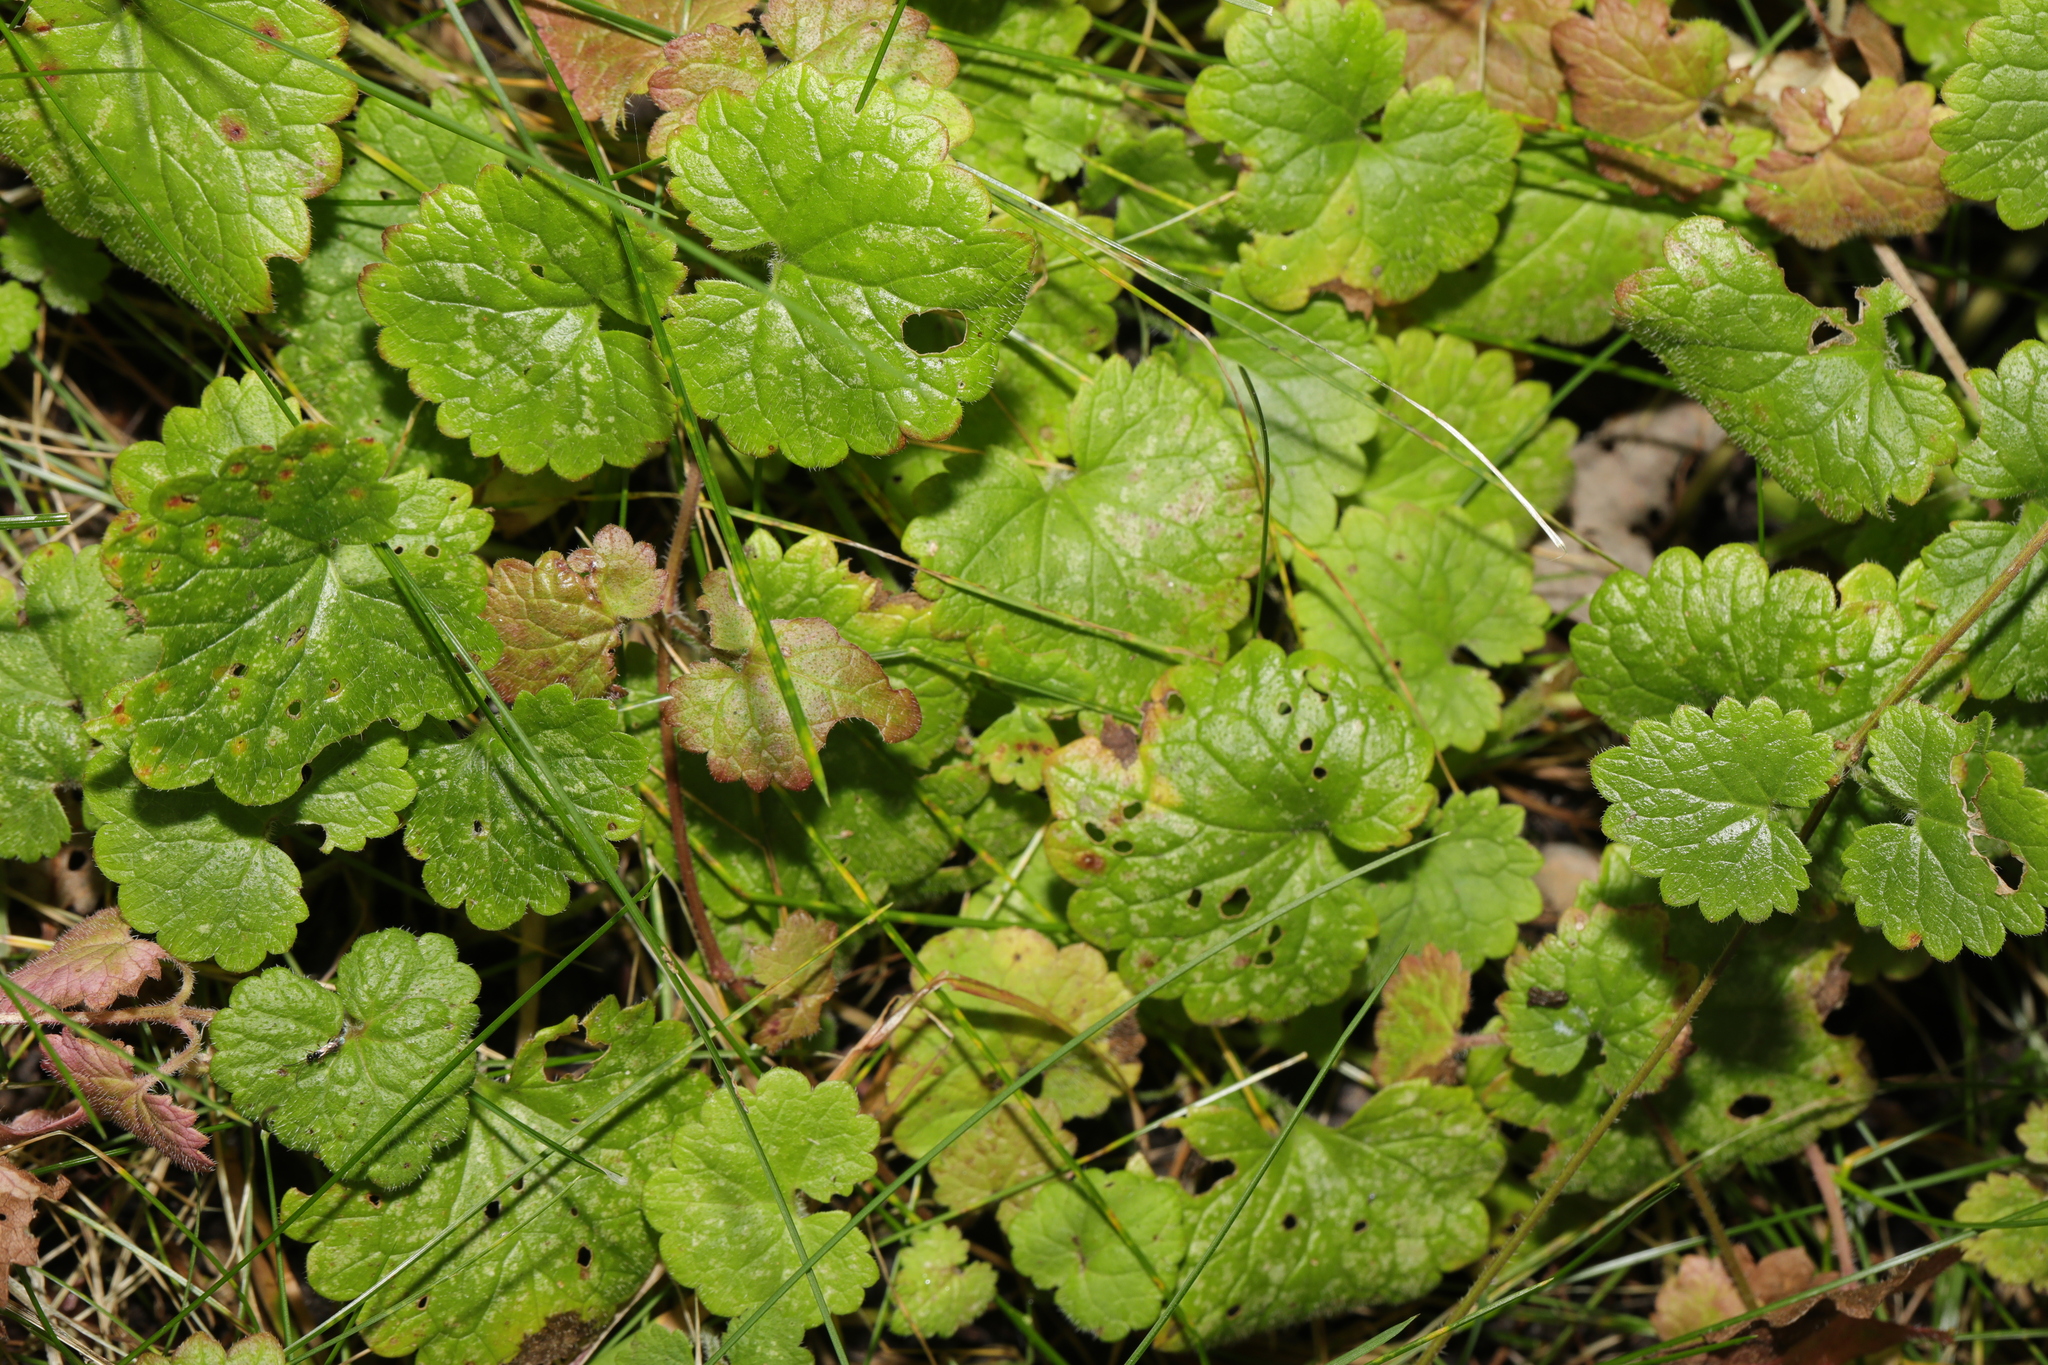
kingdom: Plantae
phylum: Tracheophyta
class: Magnoliopsida
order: Lamiales
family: Lamiaceae
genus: Glechoma
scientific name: Glechoma hederacea
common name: Ground ivy
